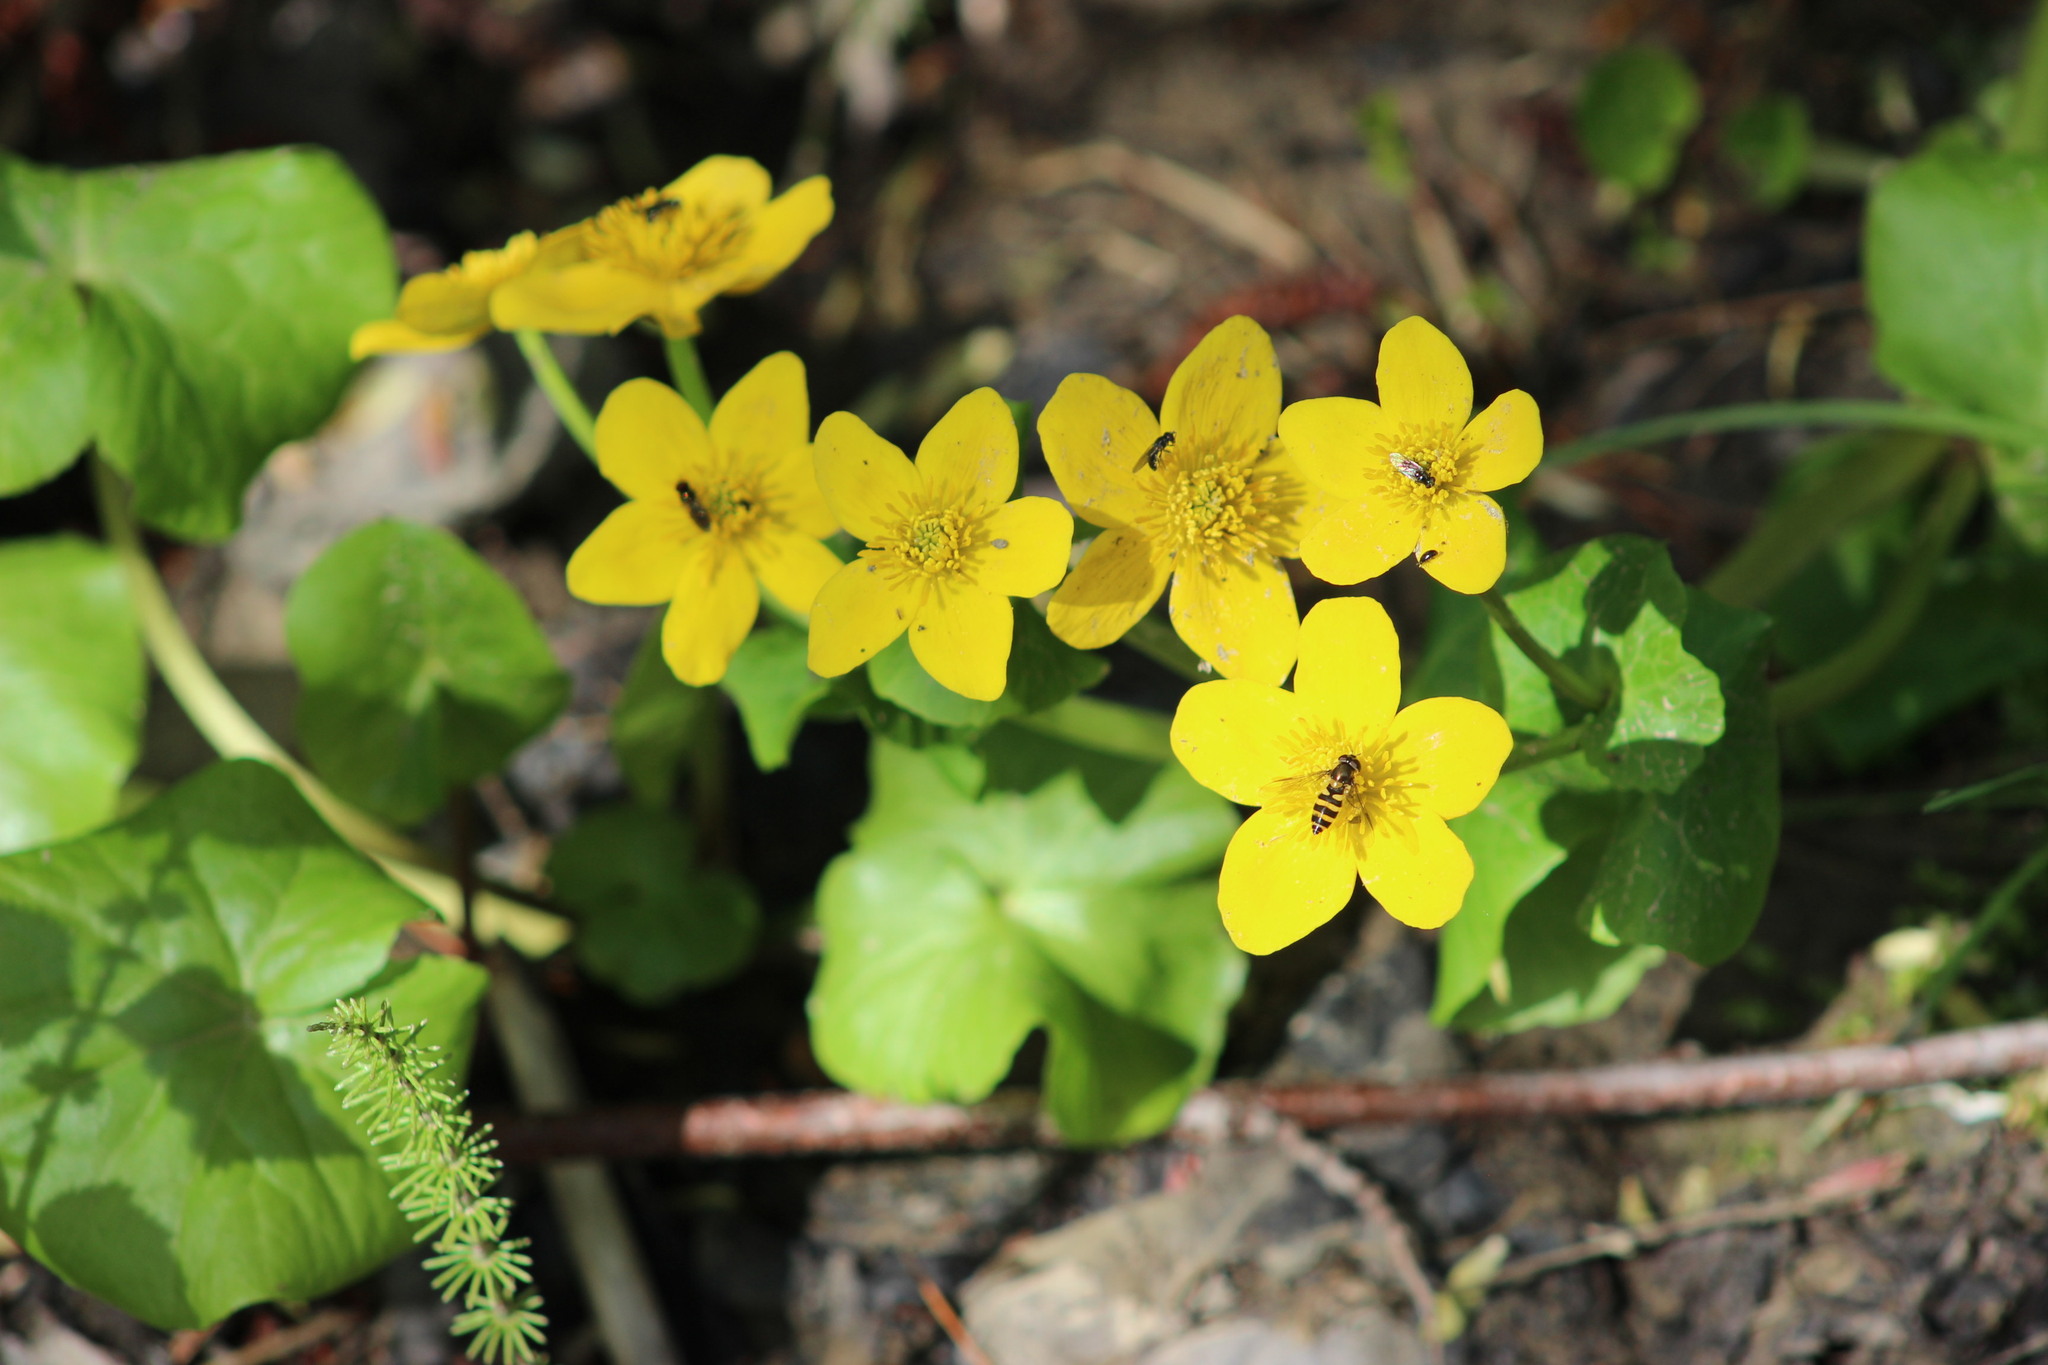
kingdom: Plantae
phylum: Tracheophyta
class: Magnoliopsida
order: Ranunculales
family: Ranunculaceae
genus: Caltha
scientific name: Caltha palustris
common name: Marsh marigold
